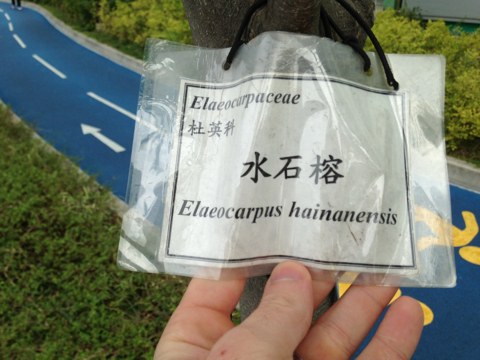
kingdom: Plantae
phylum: Tracheophyta
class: Magnoliopsida
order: Oxalidales
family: Elaeocarpaceae
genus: Elaeocarpus
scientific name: Elaeocarpus hainanensis
